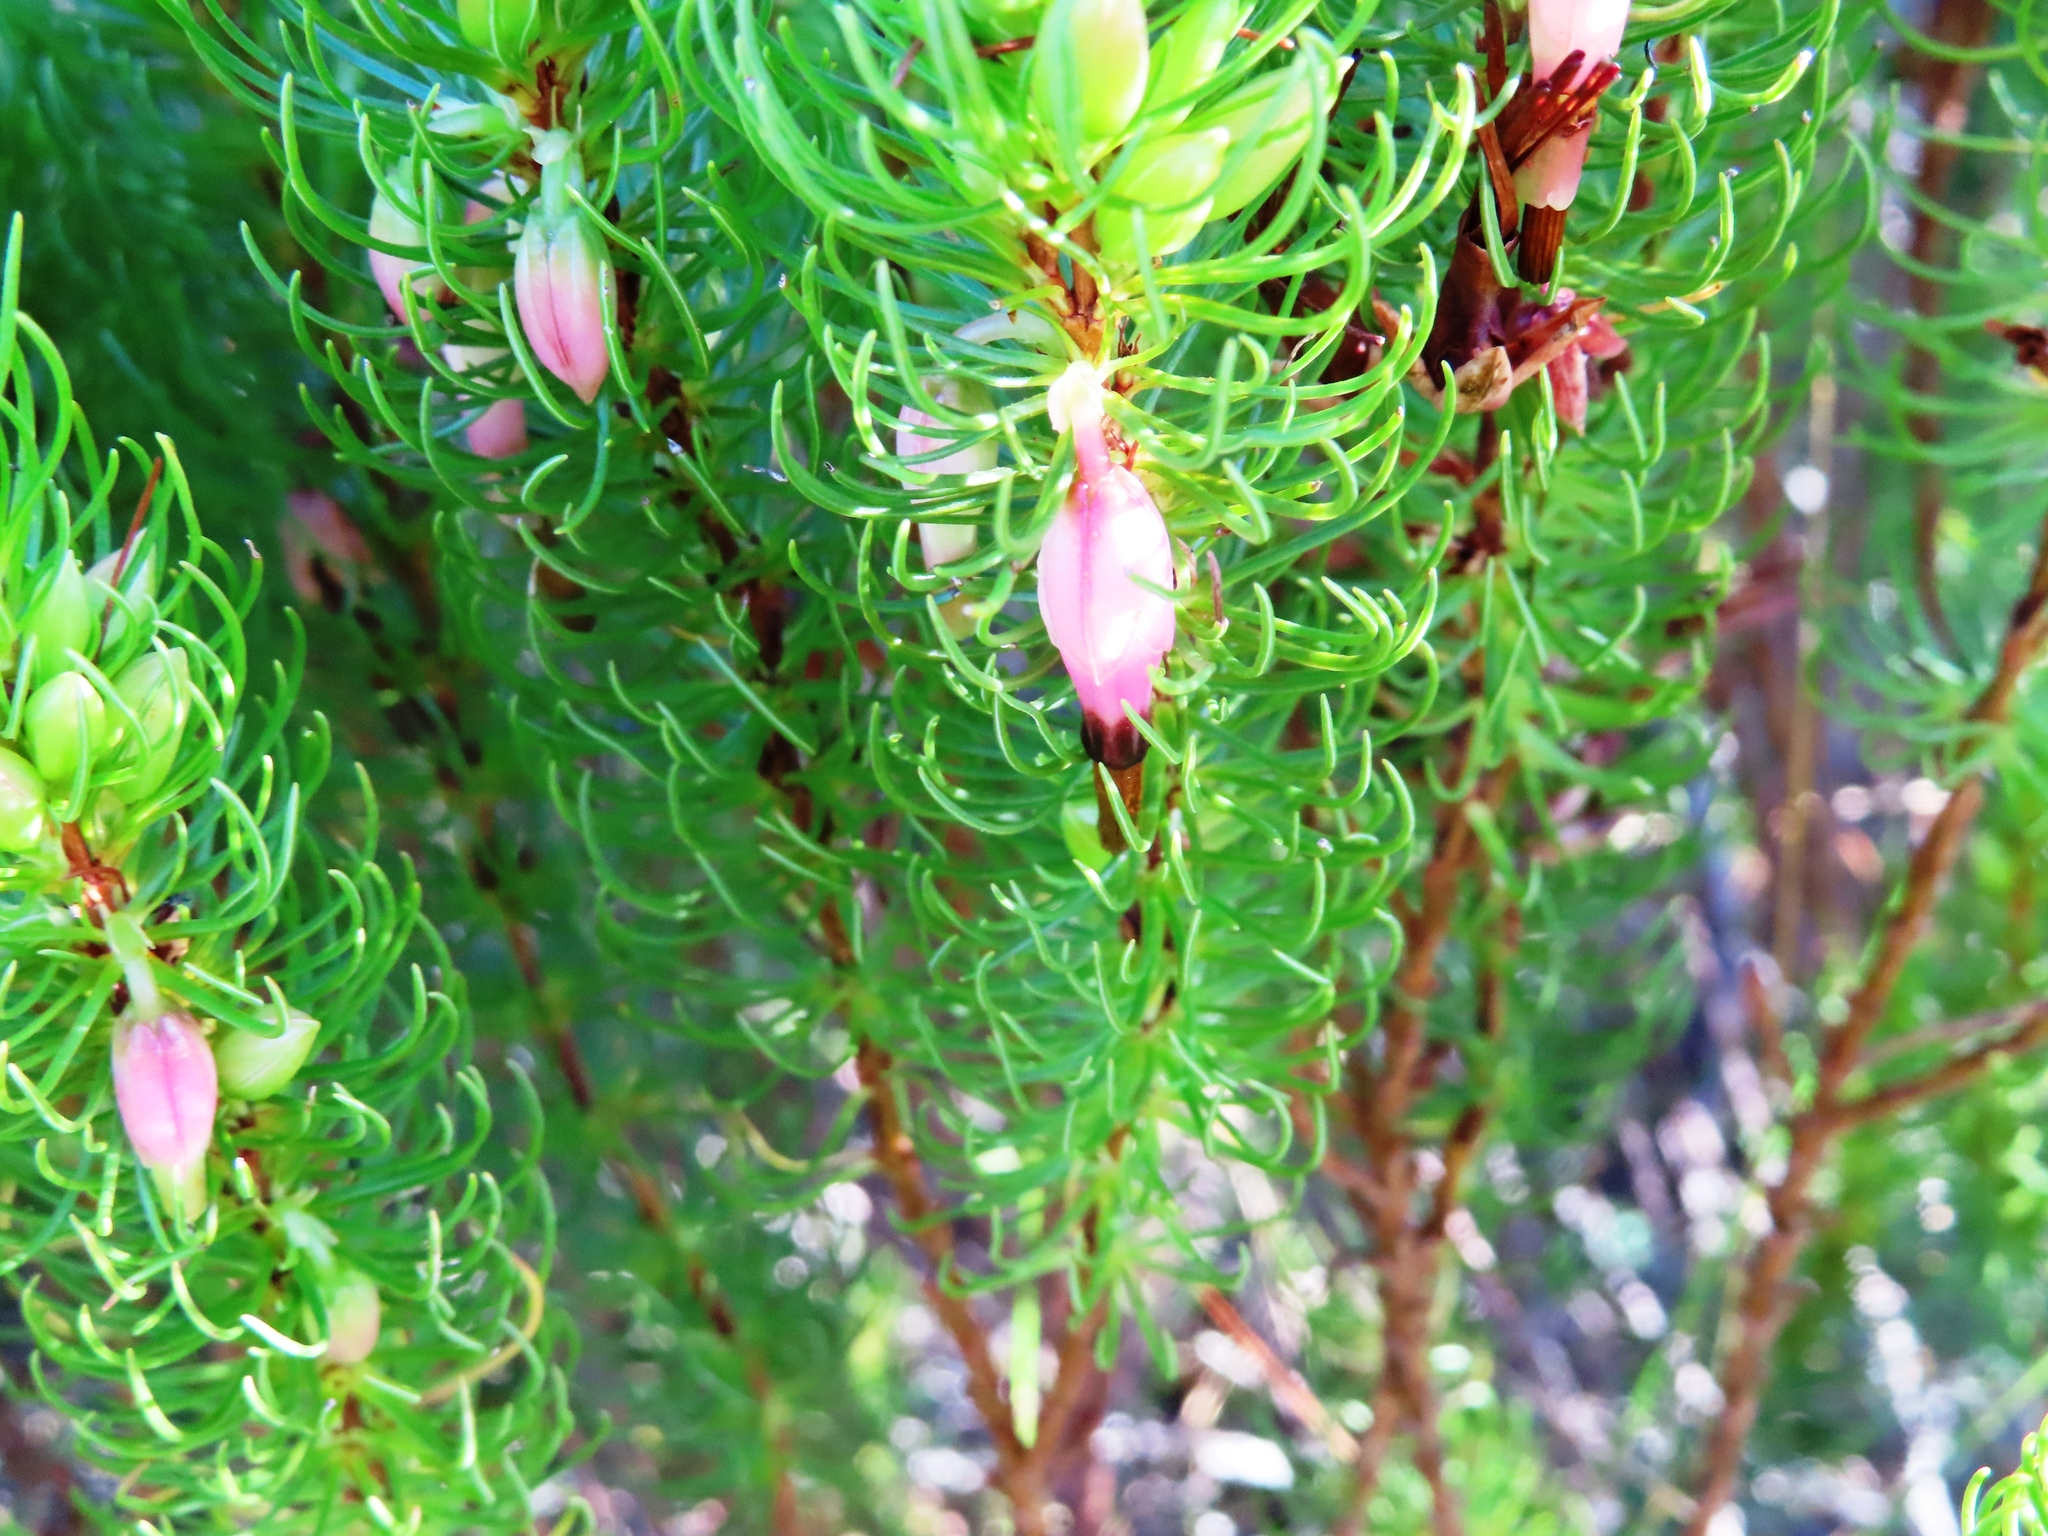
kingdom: Plantae
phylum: Tracheophyta
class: Magnoliopsida
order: Ericales
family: Ericaceae
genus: Erica
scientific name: Erica plukenetii
